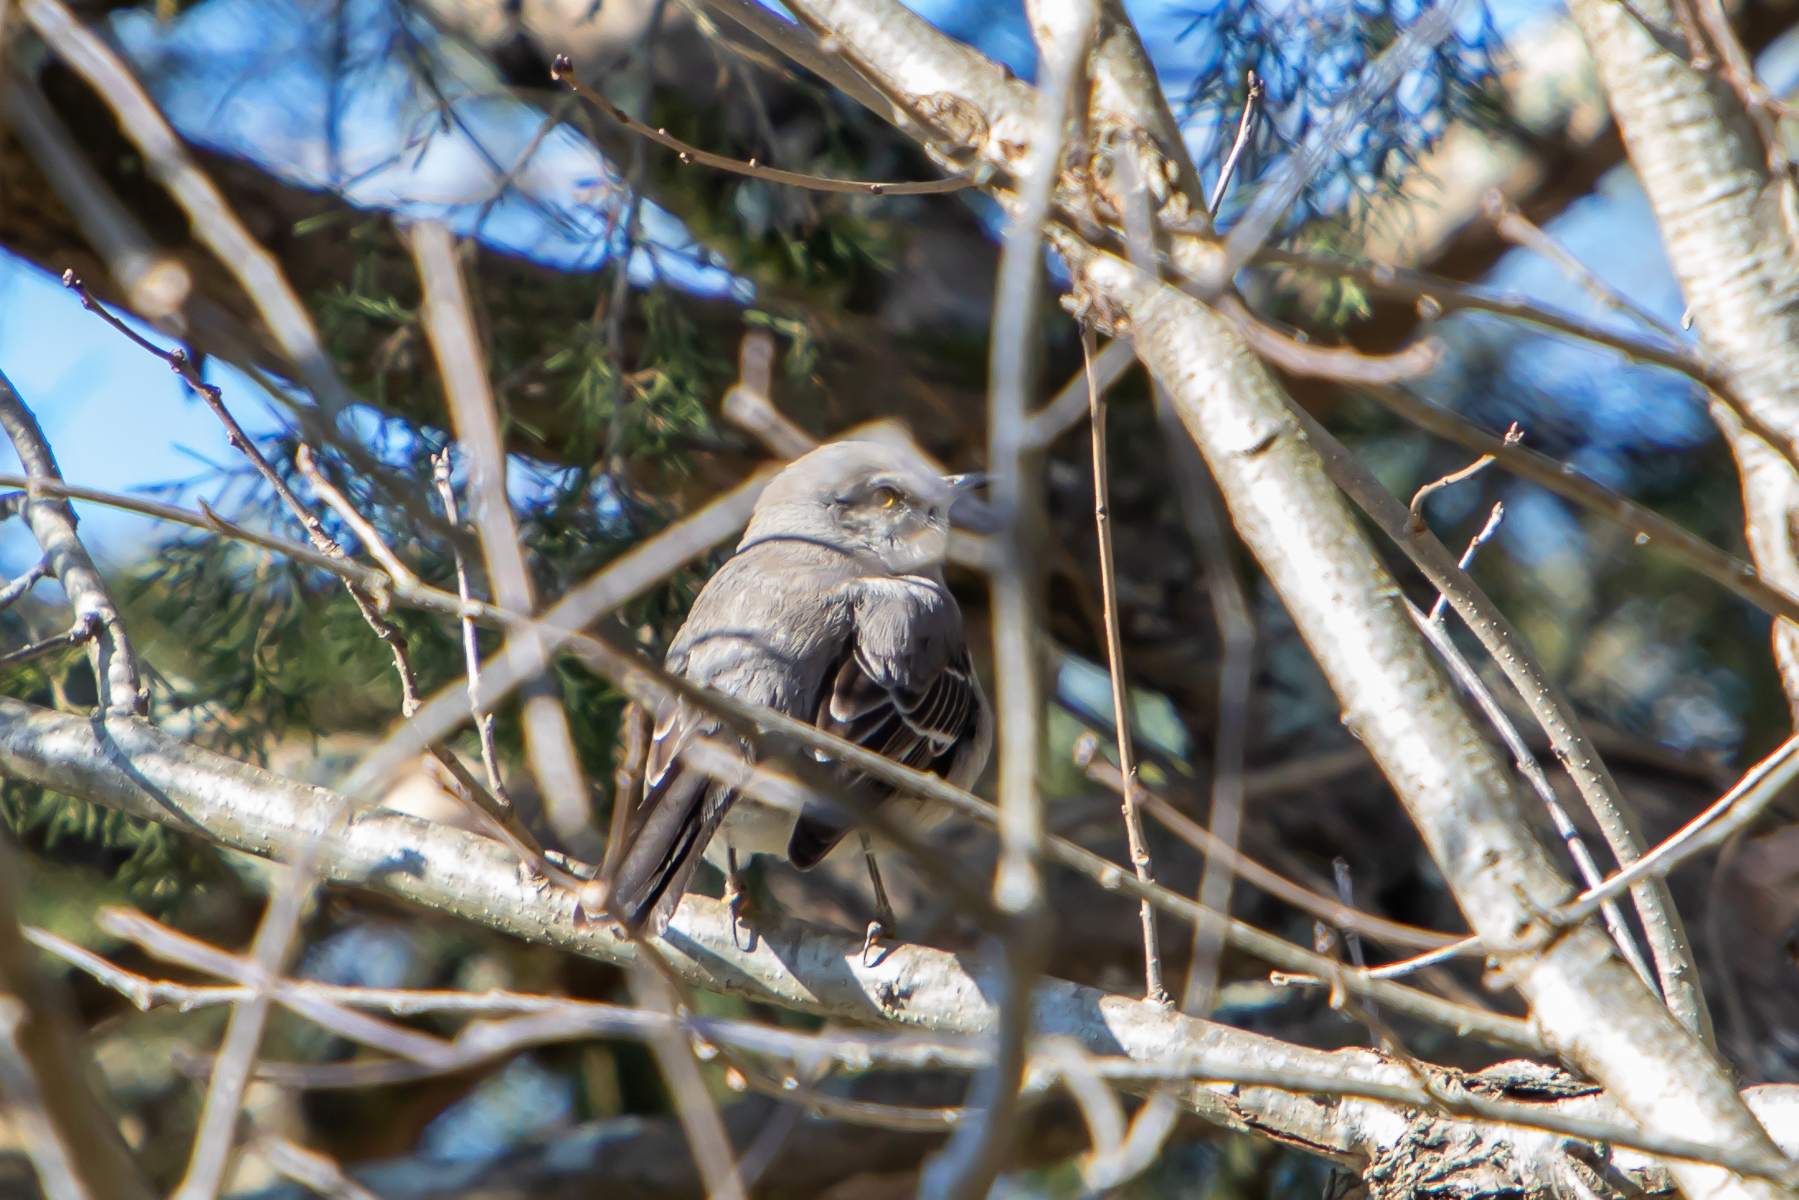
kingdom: Animalia
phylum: Chordata
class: Aves
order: Passeriformes
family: Mimidae
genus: Mimus
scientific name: Mimus polyglottos
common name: Northern mockingbird
